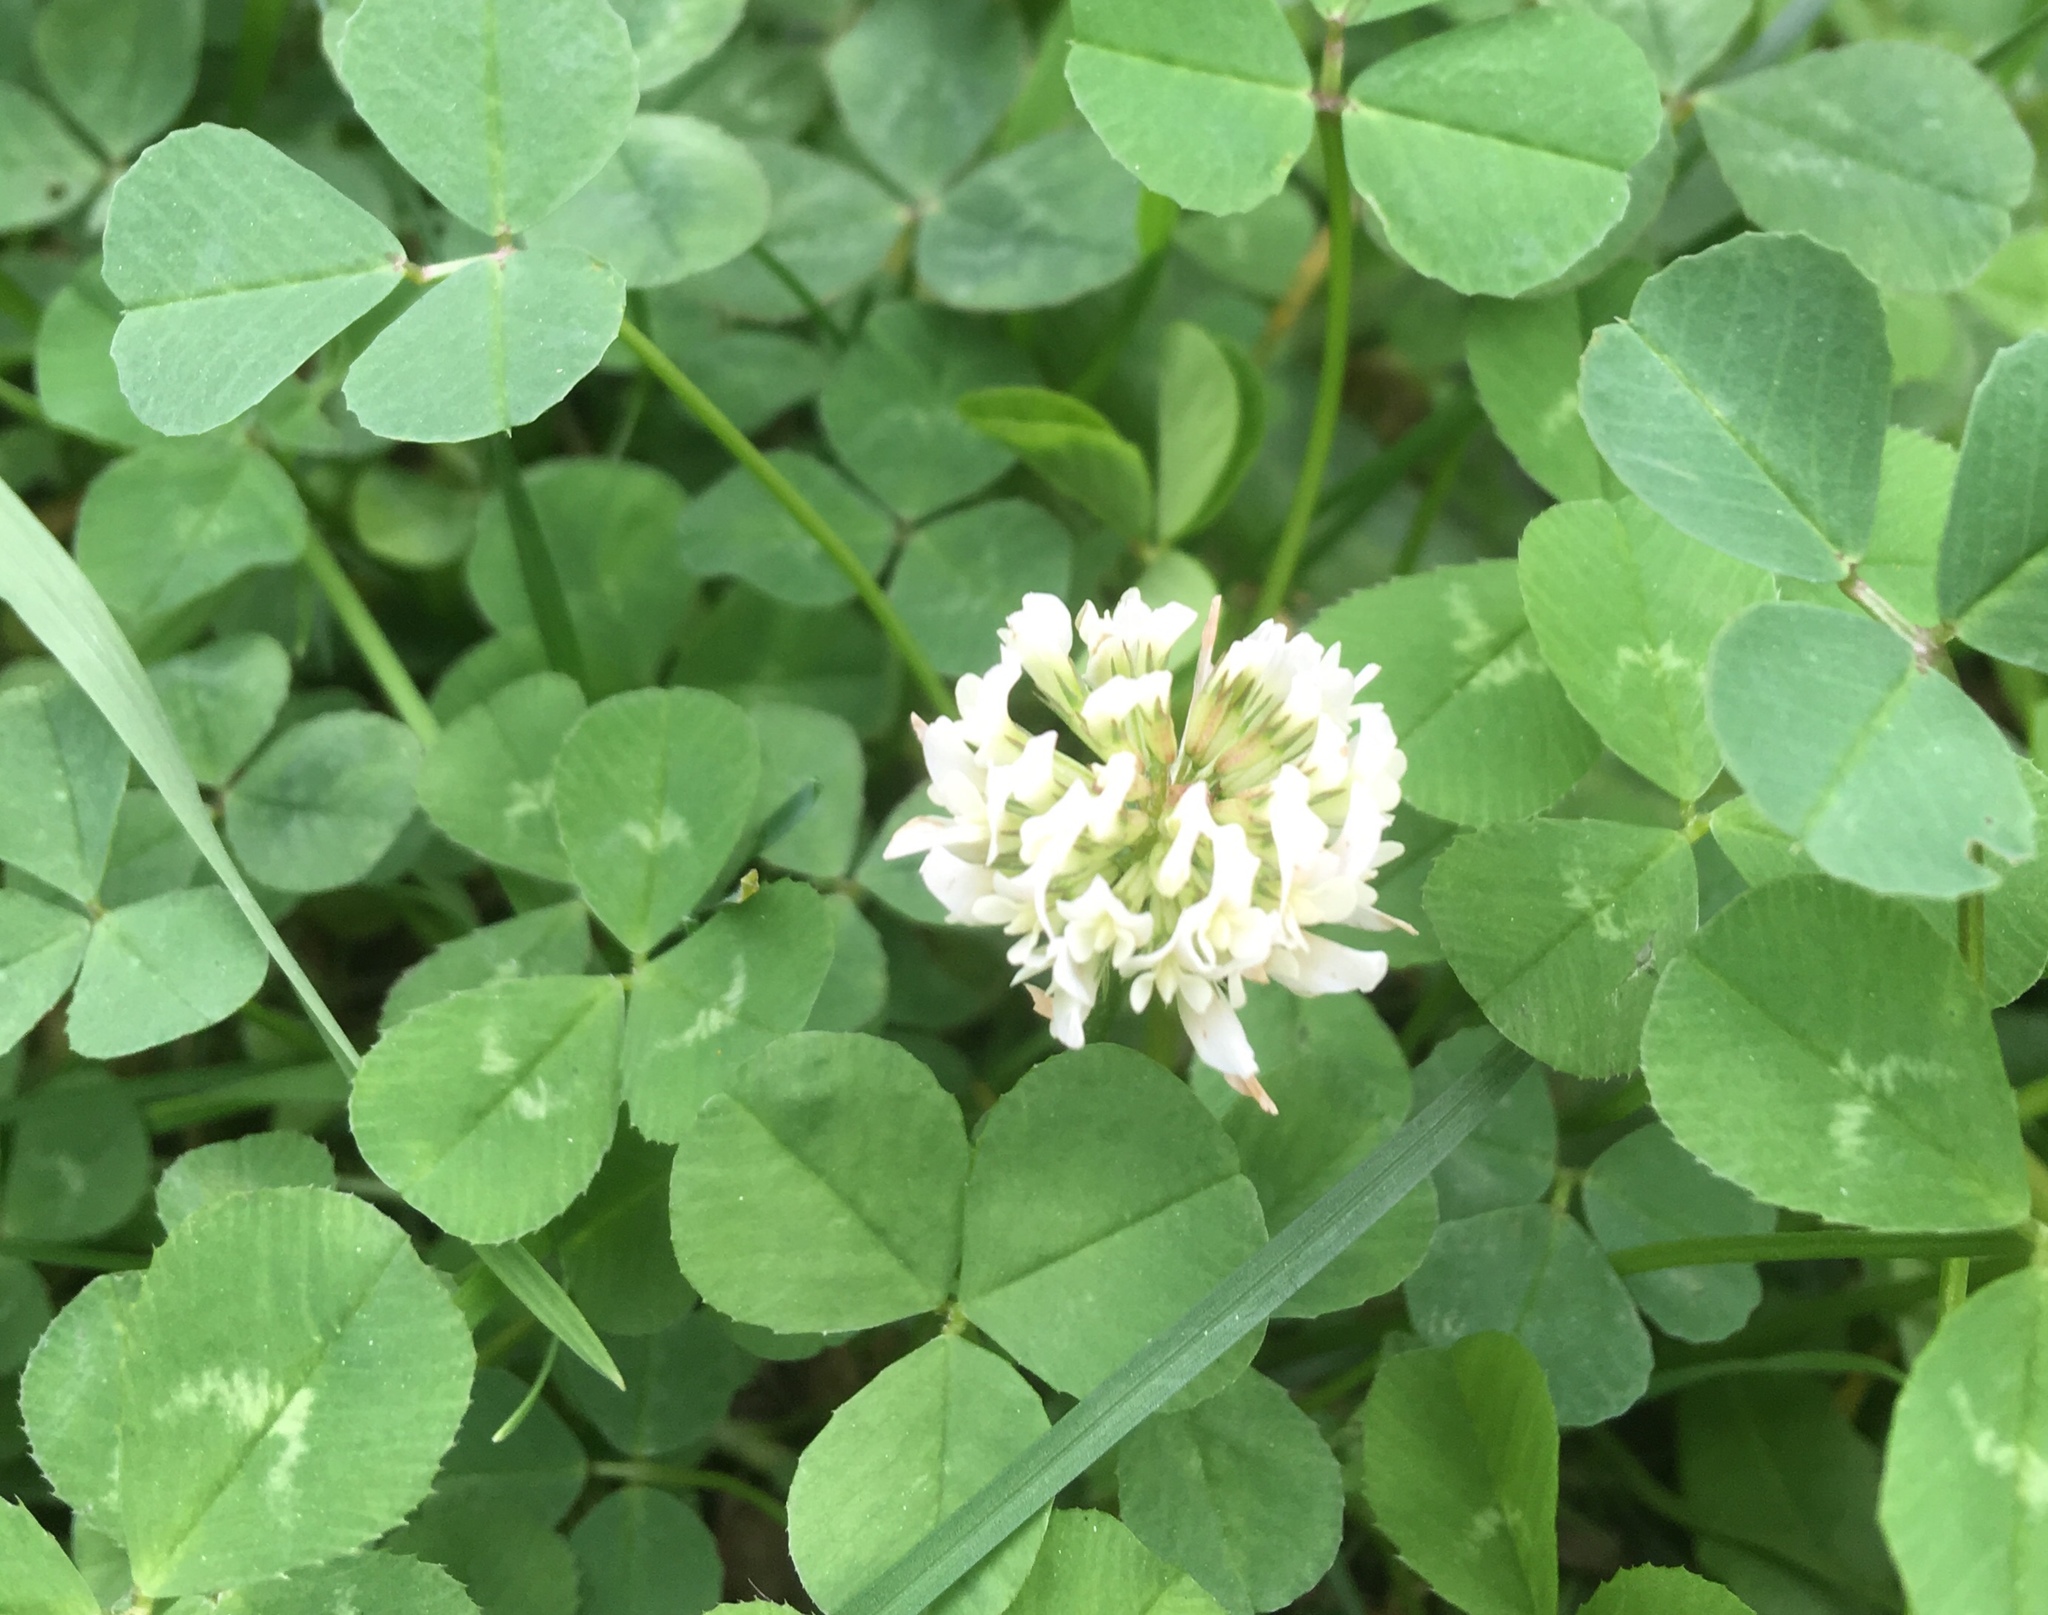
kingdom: Plantae
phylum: Tracheophyta
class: Magnoliopsida
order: Fabales
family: Fabaceae
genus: Trifolium
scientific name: Trifolium repens
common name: White clover
